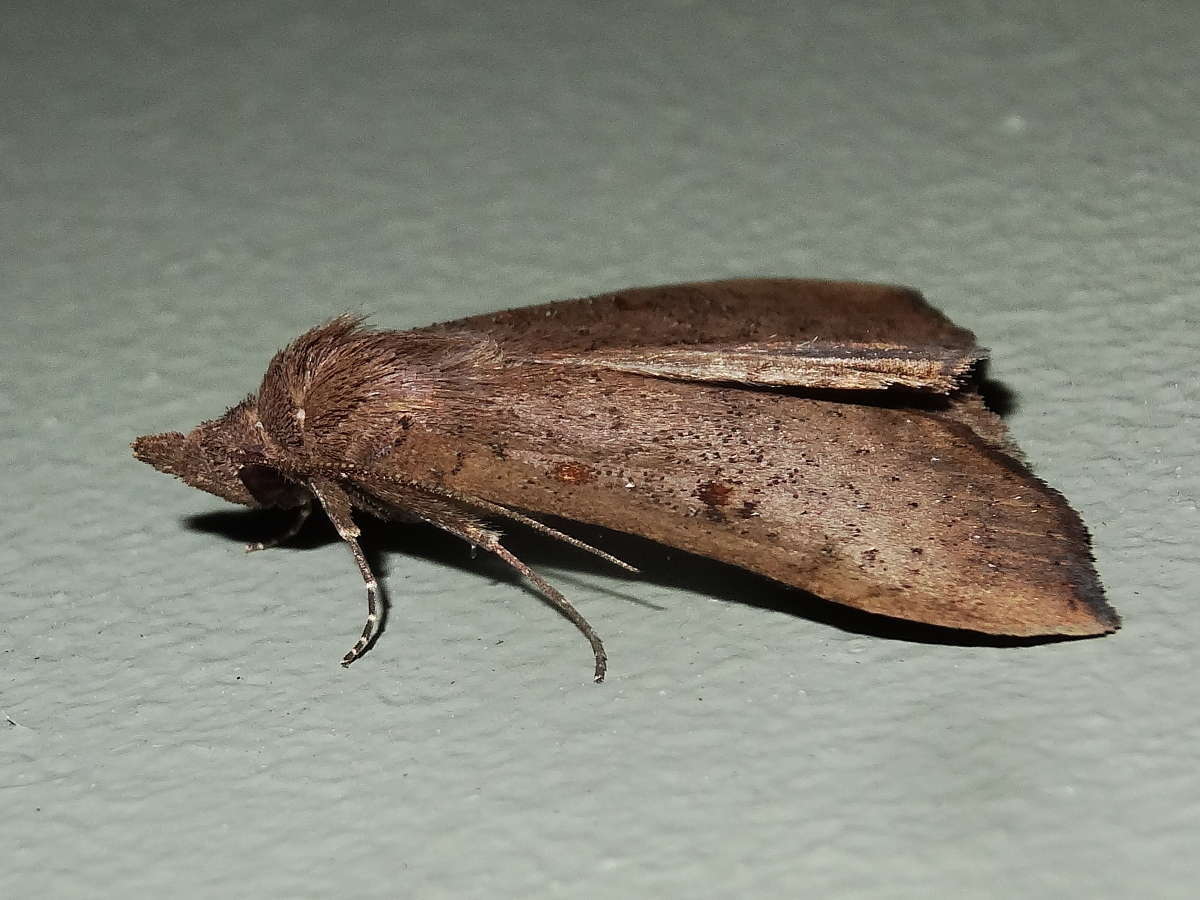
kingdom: Animalia
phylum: Arthropoda
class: Insecta
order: Lepidoptera
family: Erebidae
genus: Rhapsa
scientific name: Rhapsa suscitatalis
